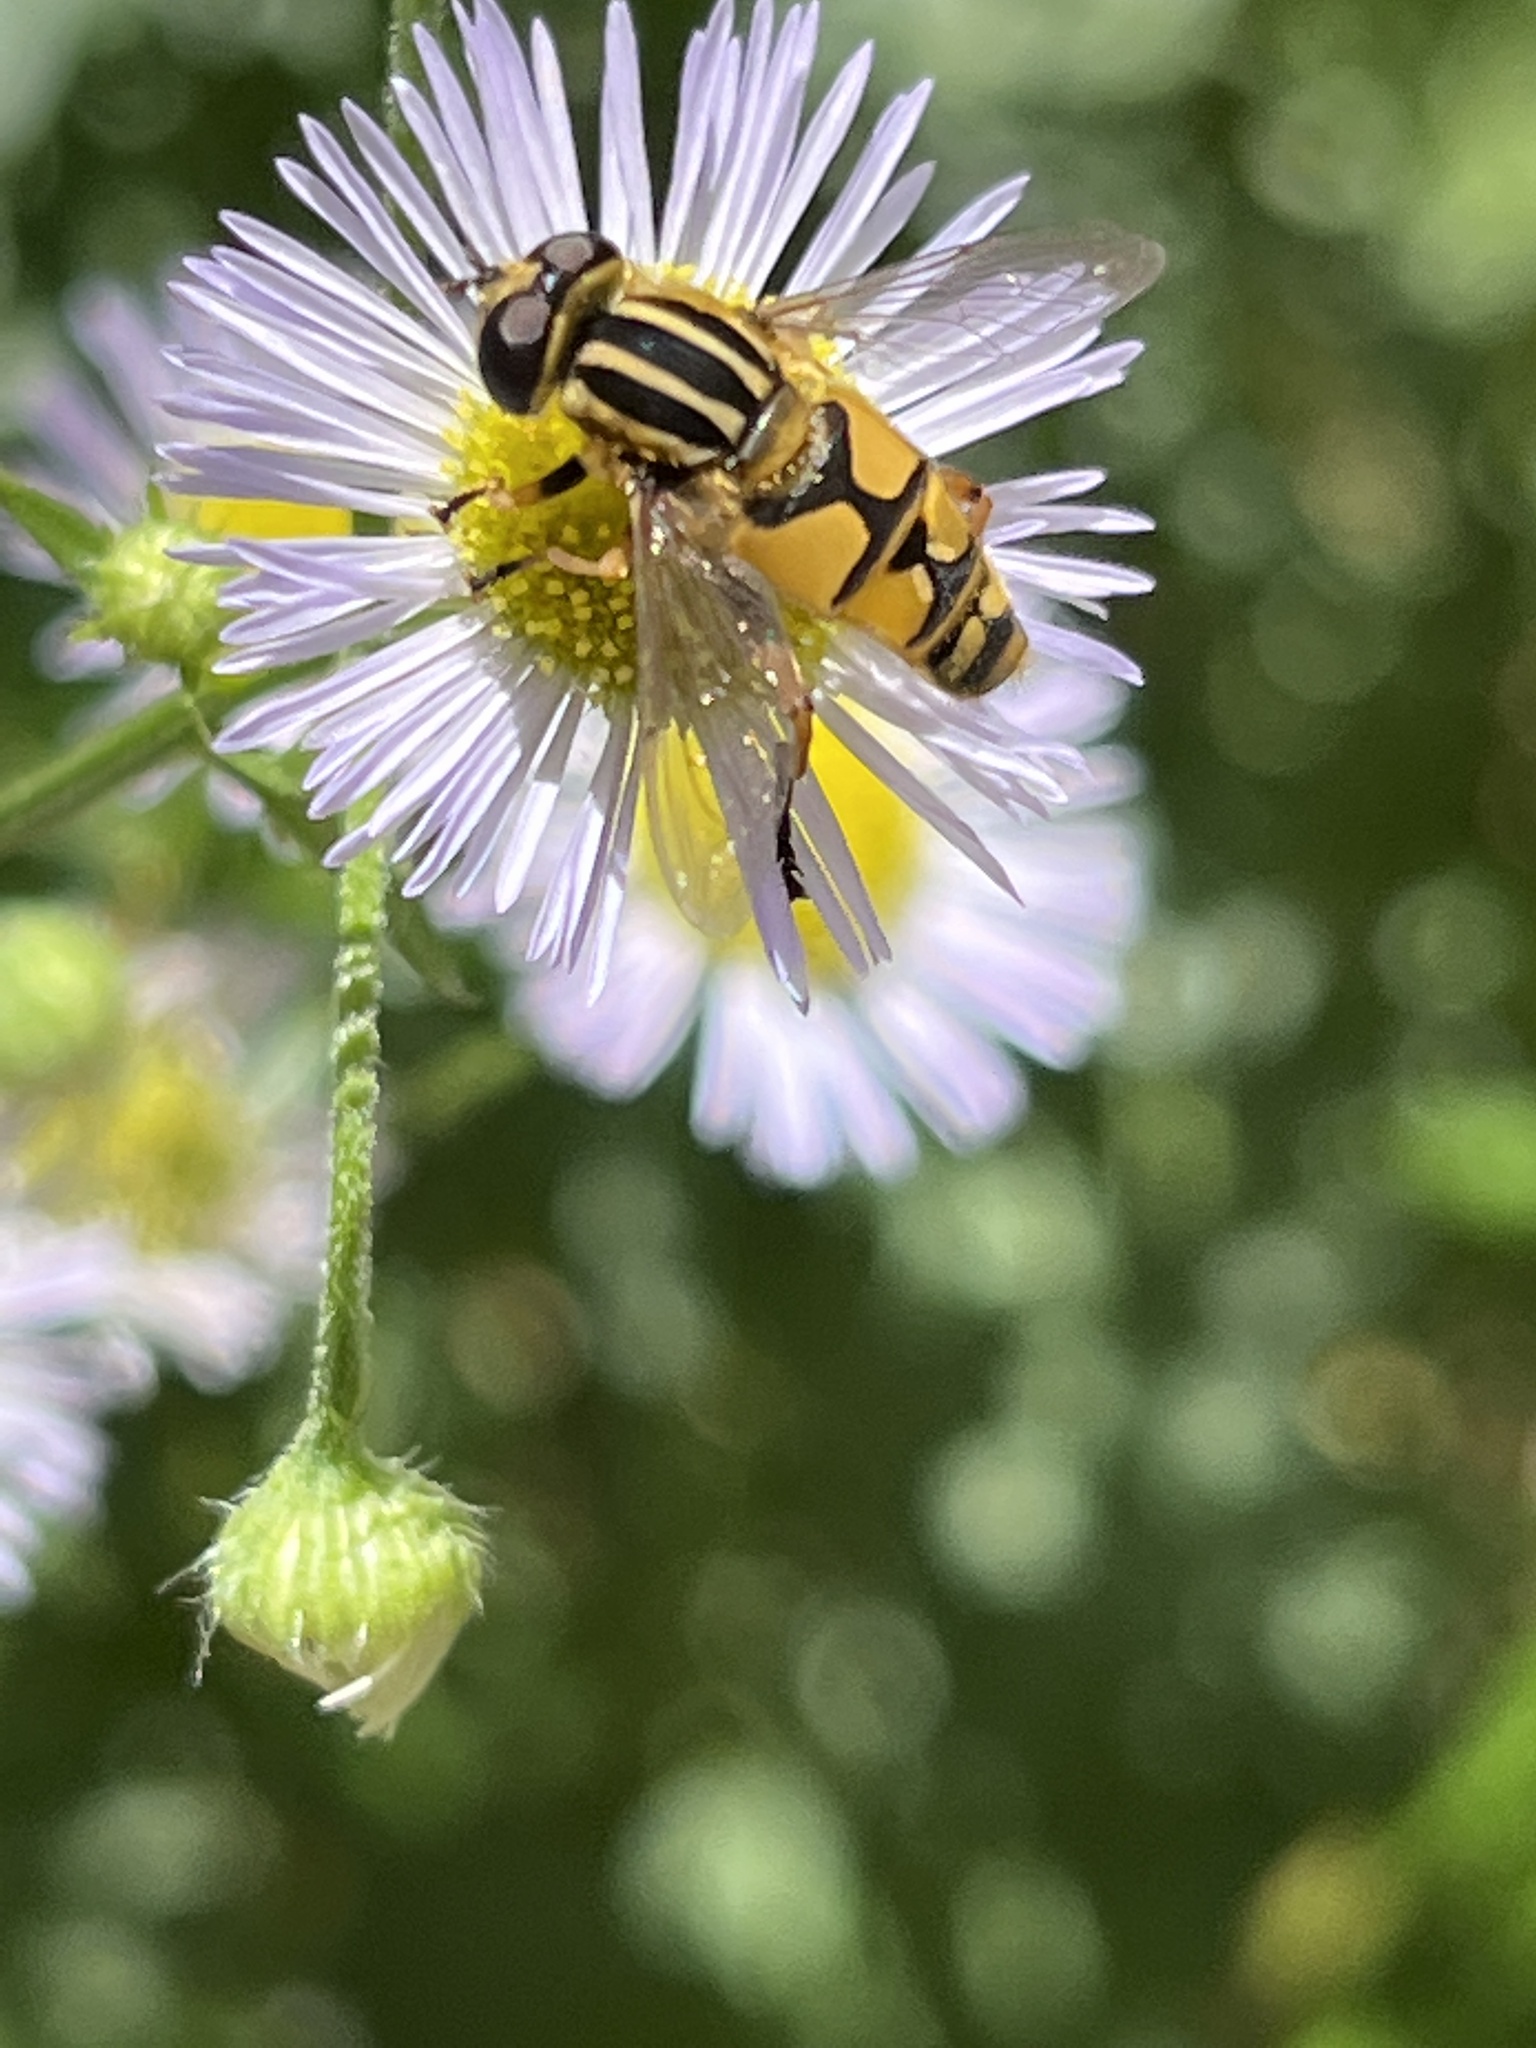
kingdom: Animalia
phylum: Arthropoda
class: Insecta
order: Diptera
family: Syrphidae
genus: Helophilus
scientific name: Helophilus pendulus
